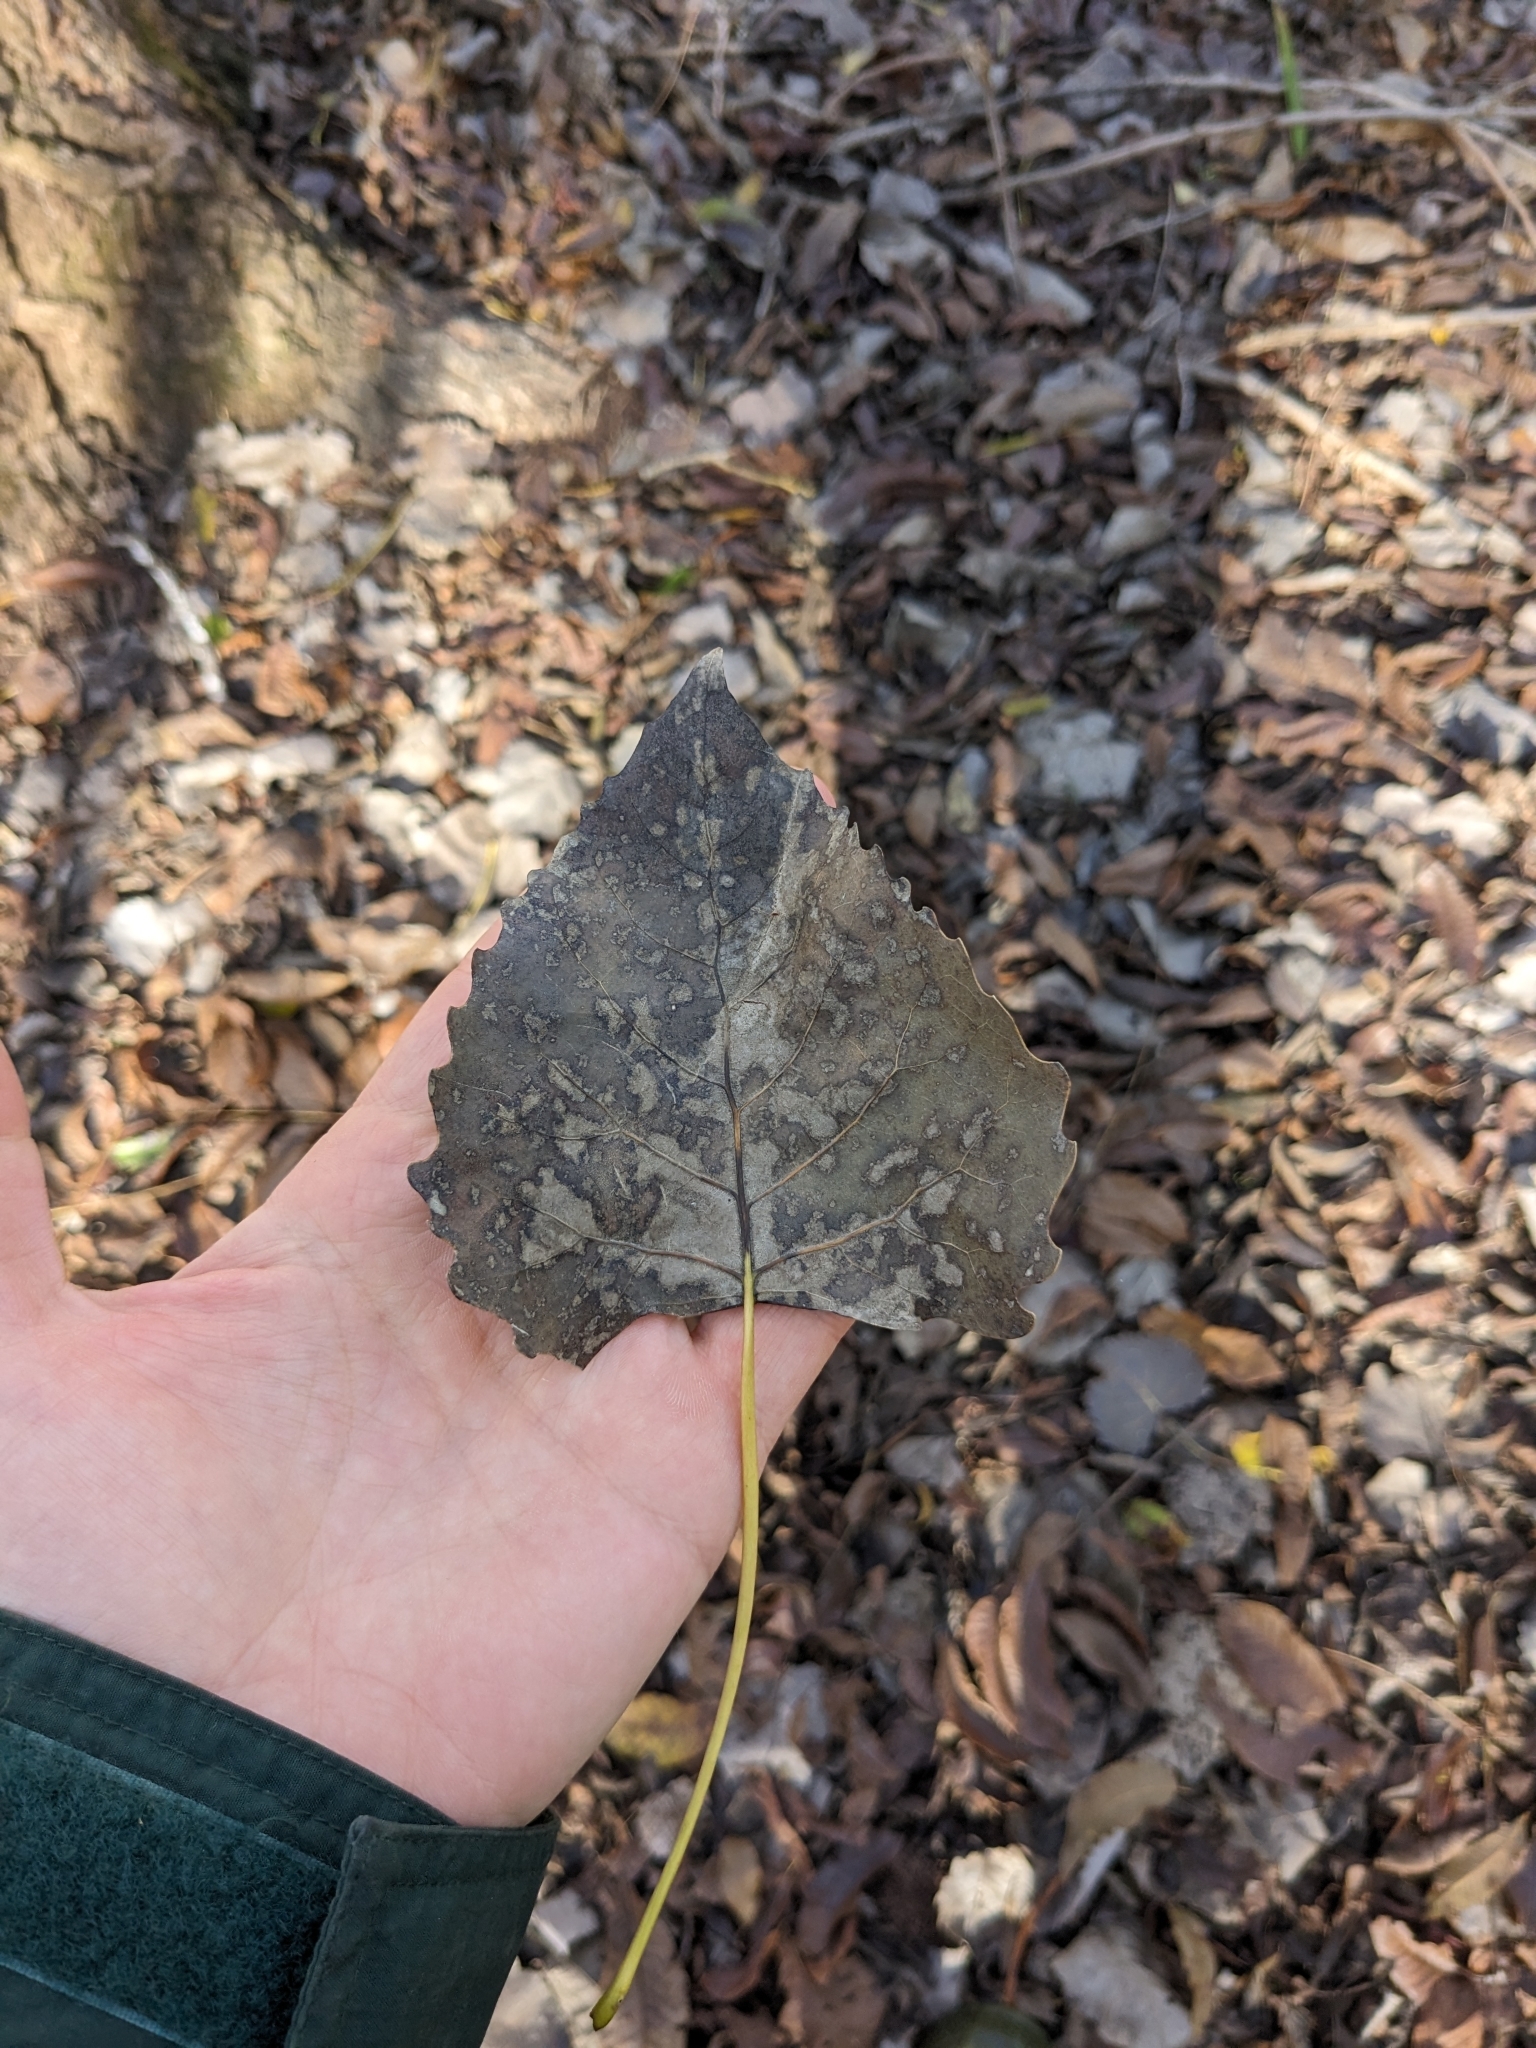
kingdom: Plantae
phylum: Tracheophyta
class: Magnoliopsida
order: Malpighiales
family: Salicaceae
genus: Populus
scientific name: Populus deltoides
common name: Eastern cottonwood
